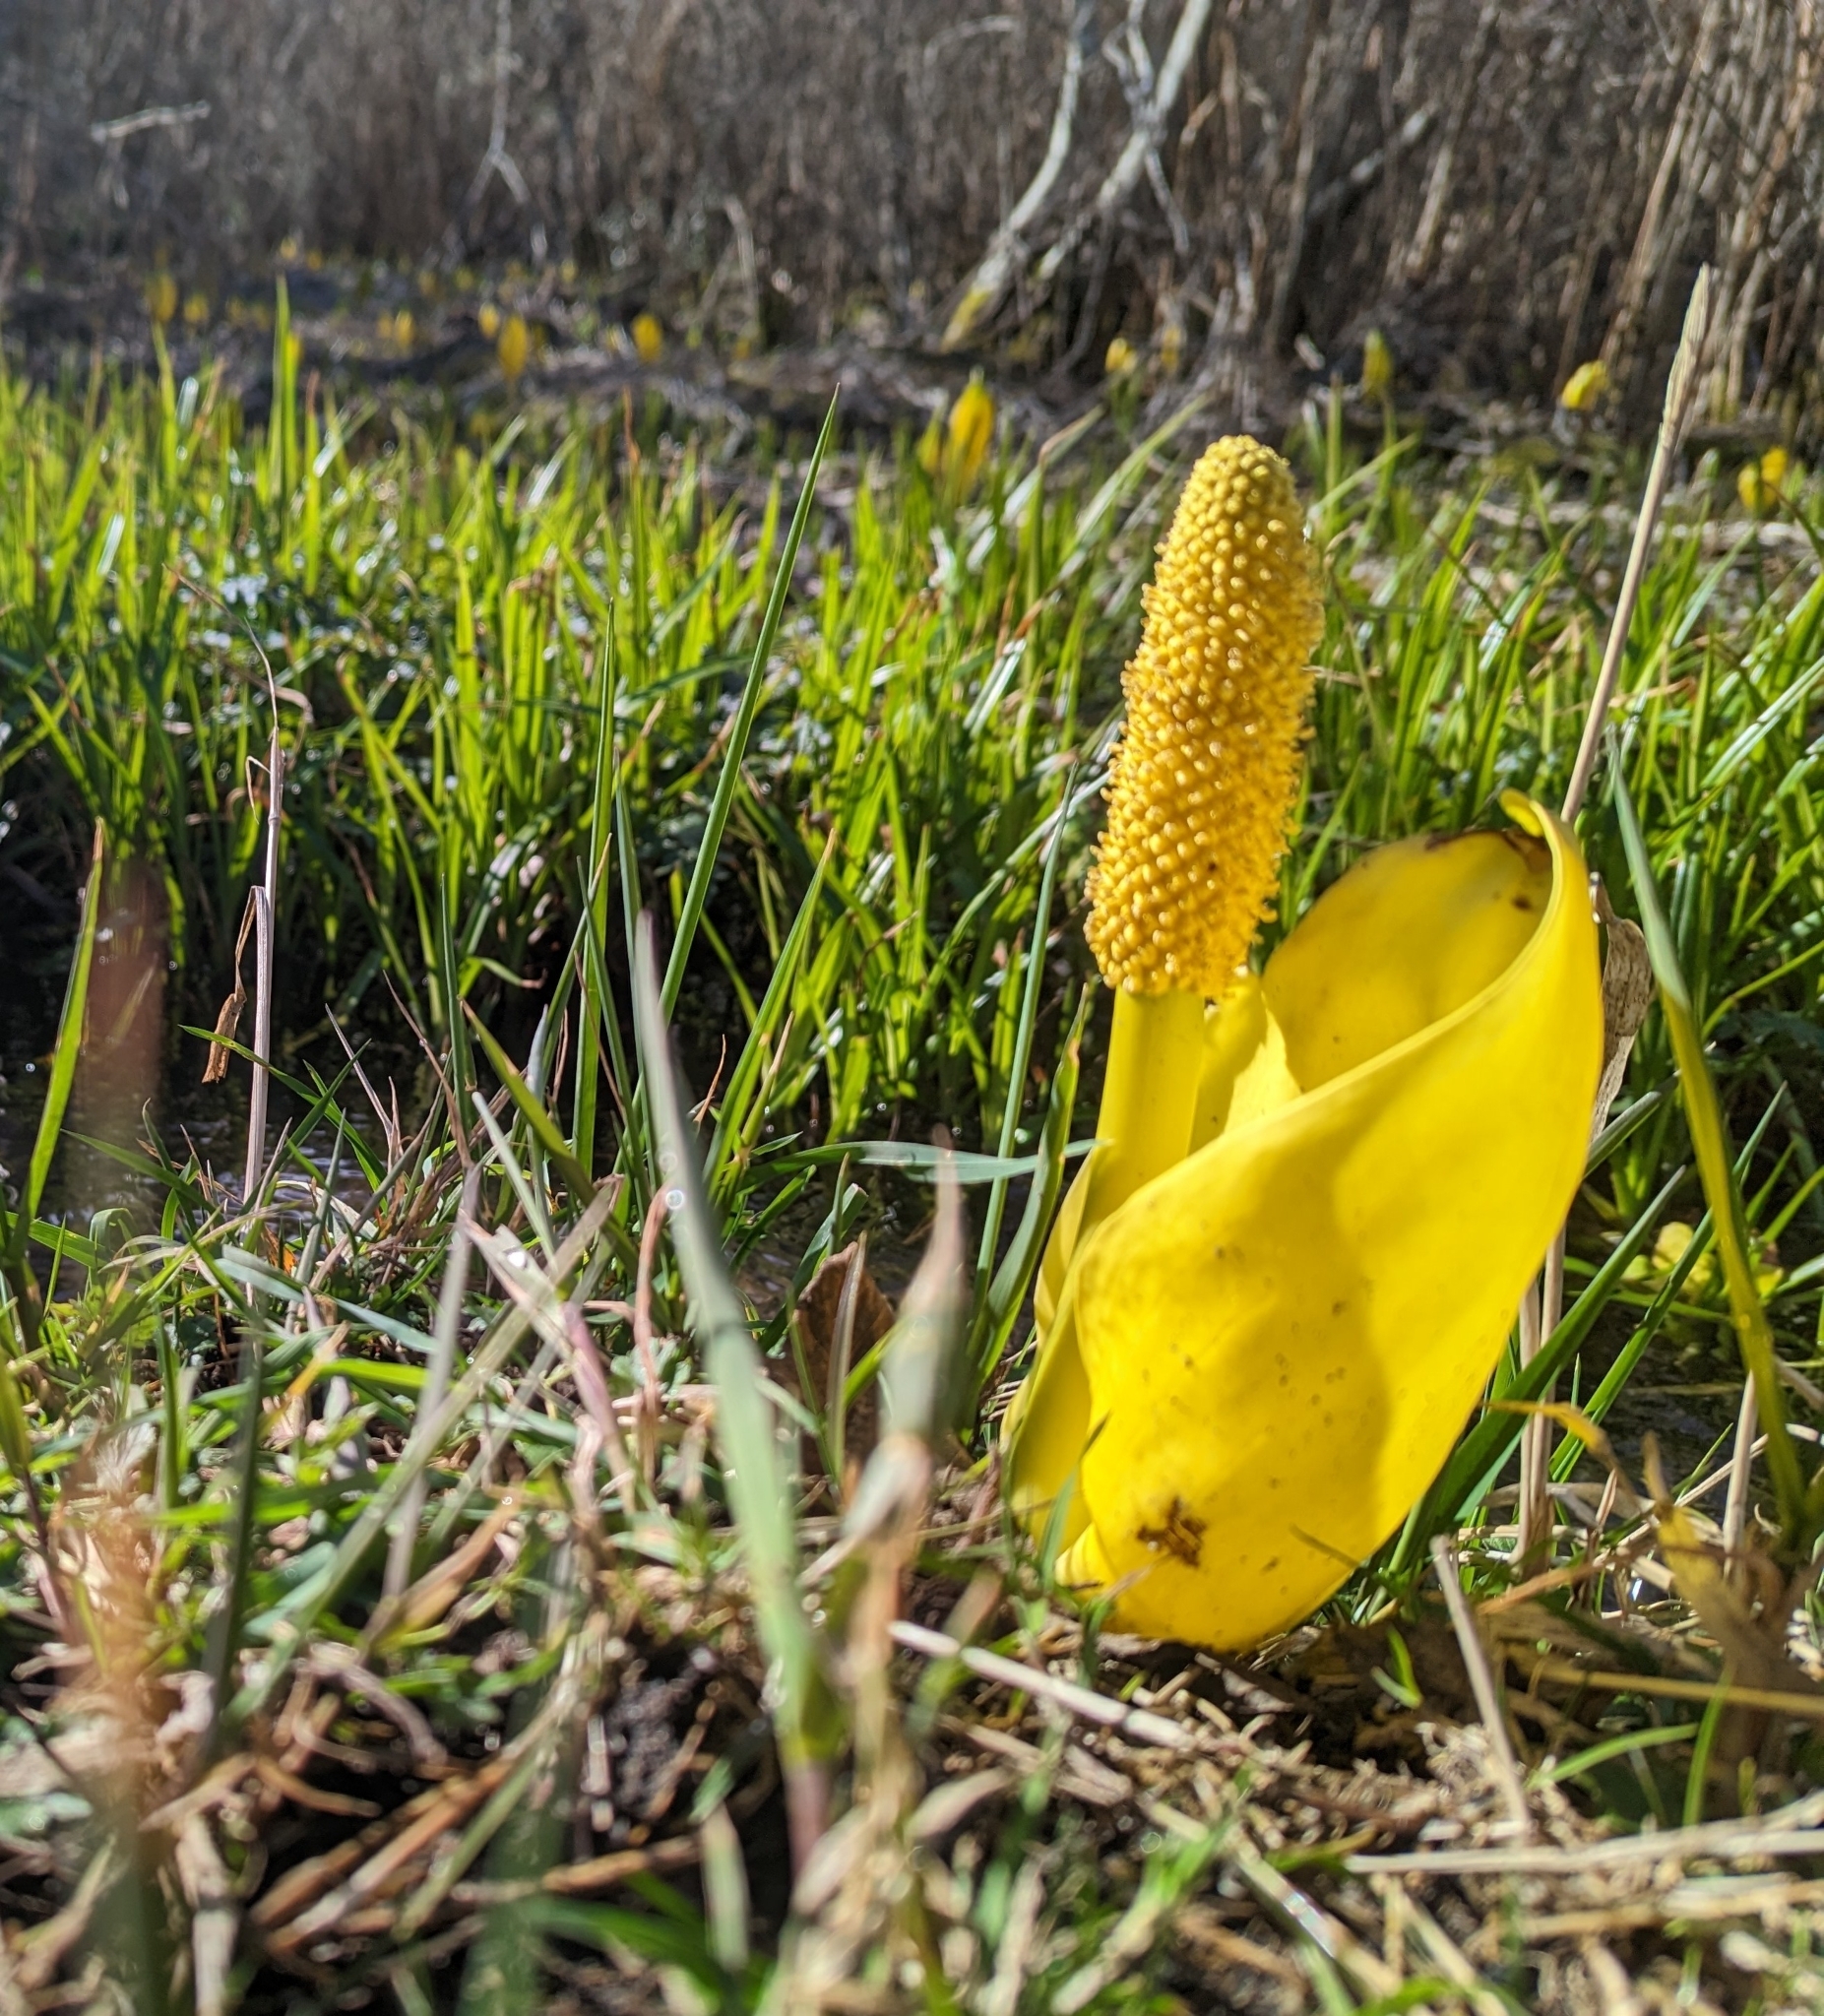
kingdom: Plantae
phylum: Tracheophyta
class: Liliopsida
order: Alismatales
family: Araceae
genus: Lysichiton
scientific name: Lysichiton americanus
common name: American skunk cabbage
